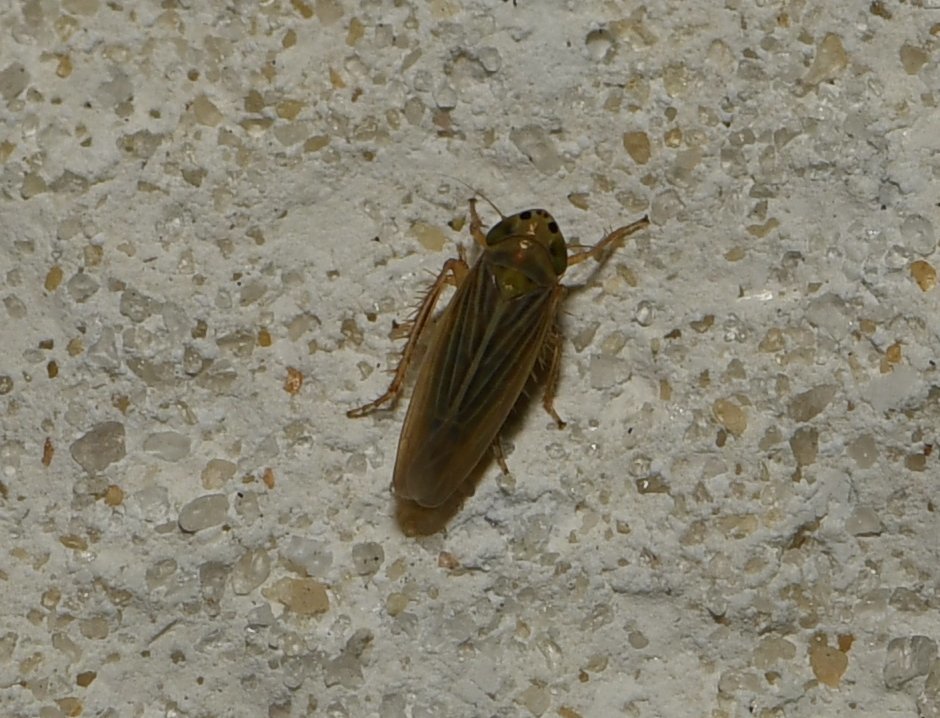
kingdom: Animalia
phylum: Arthropoda
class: Insecta
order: Hemiptera
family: Cicadellidae
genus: Graminella
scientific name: Graminella cognita
